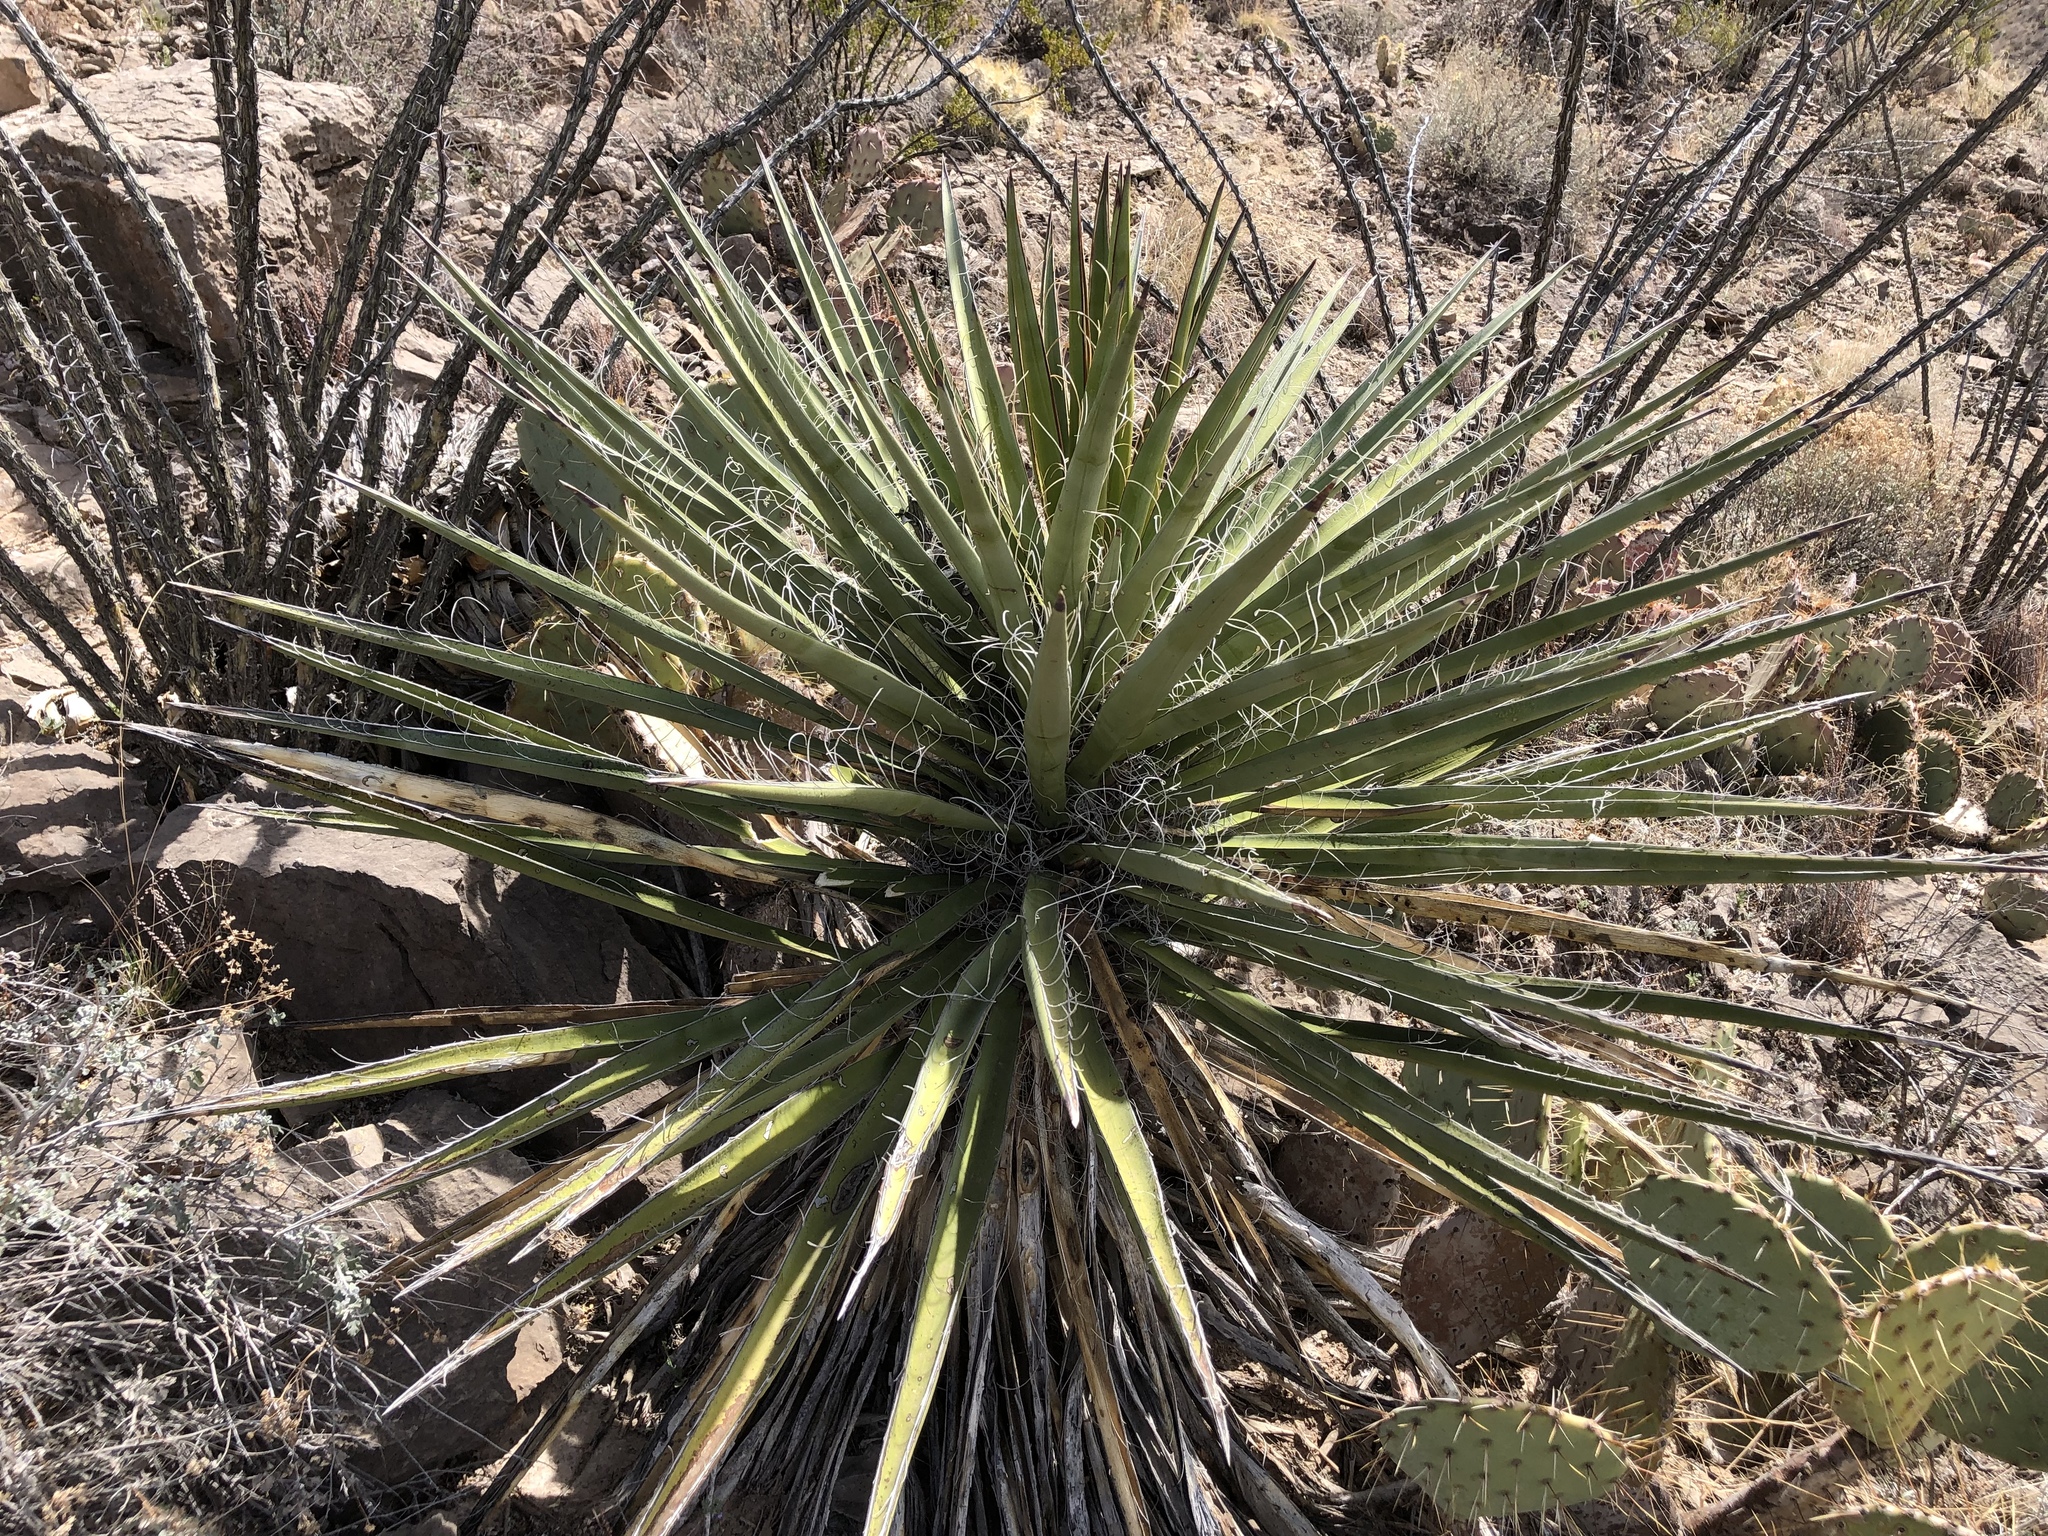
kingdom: Plantae
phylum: Tracheophyta
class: Liliopsida
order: Asparagales
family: Asparagaceae
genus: Yucca
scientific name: Yucca treculiana
